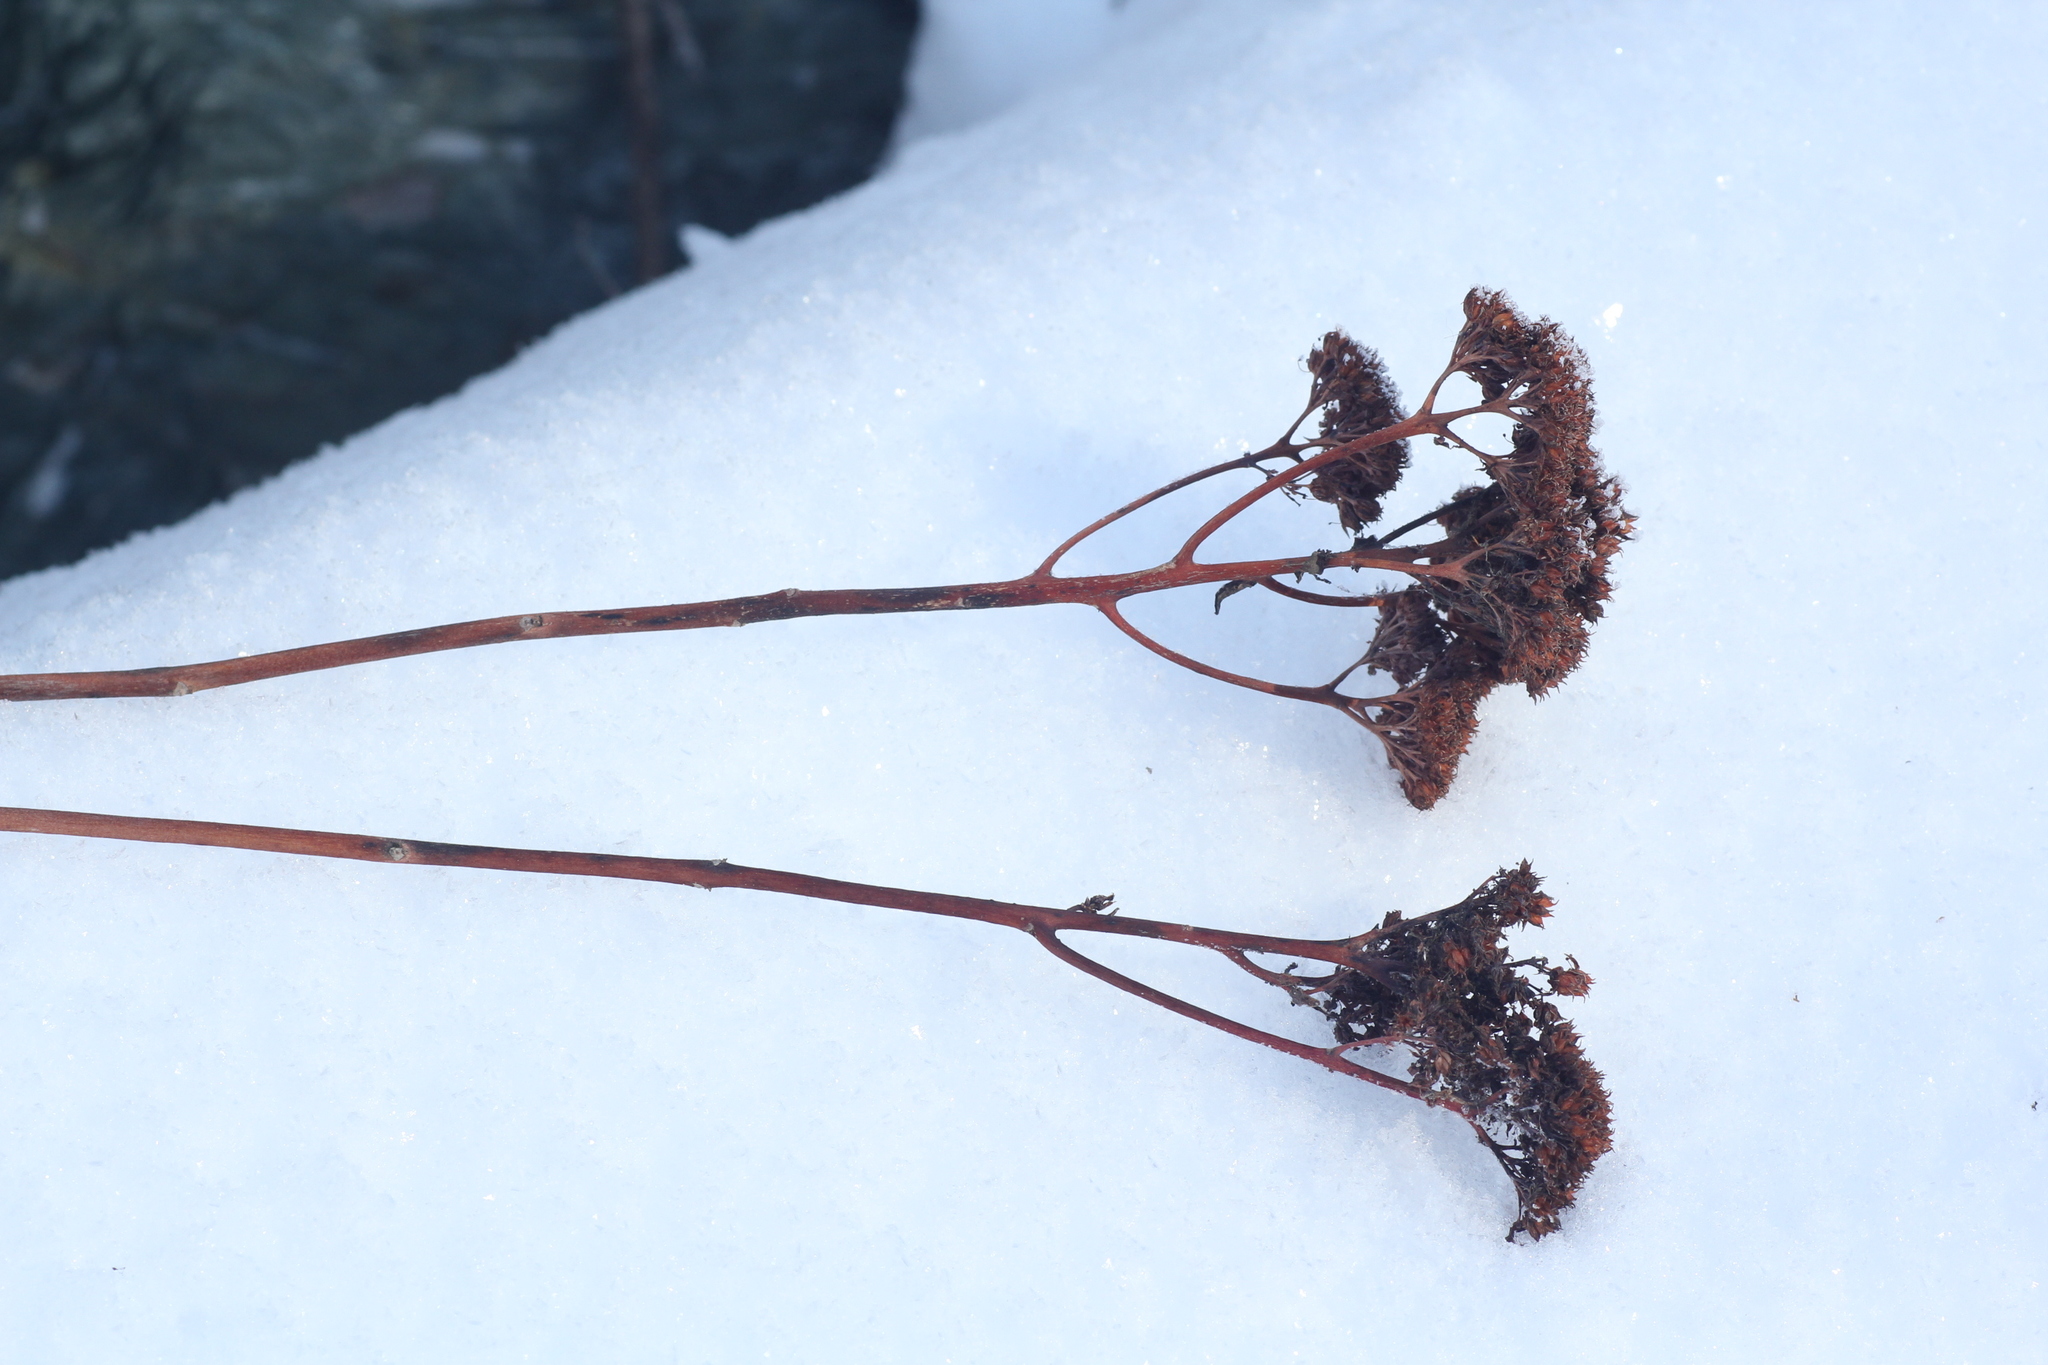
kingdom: Plantae
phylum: Tracheophyta
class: Magnoliopsida
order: Saxifragales
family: Crassulaceae
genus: Hylotelephium
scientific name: Hylotelephium telephium
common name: Live-forever
